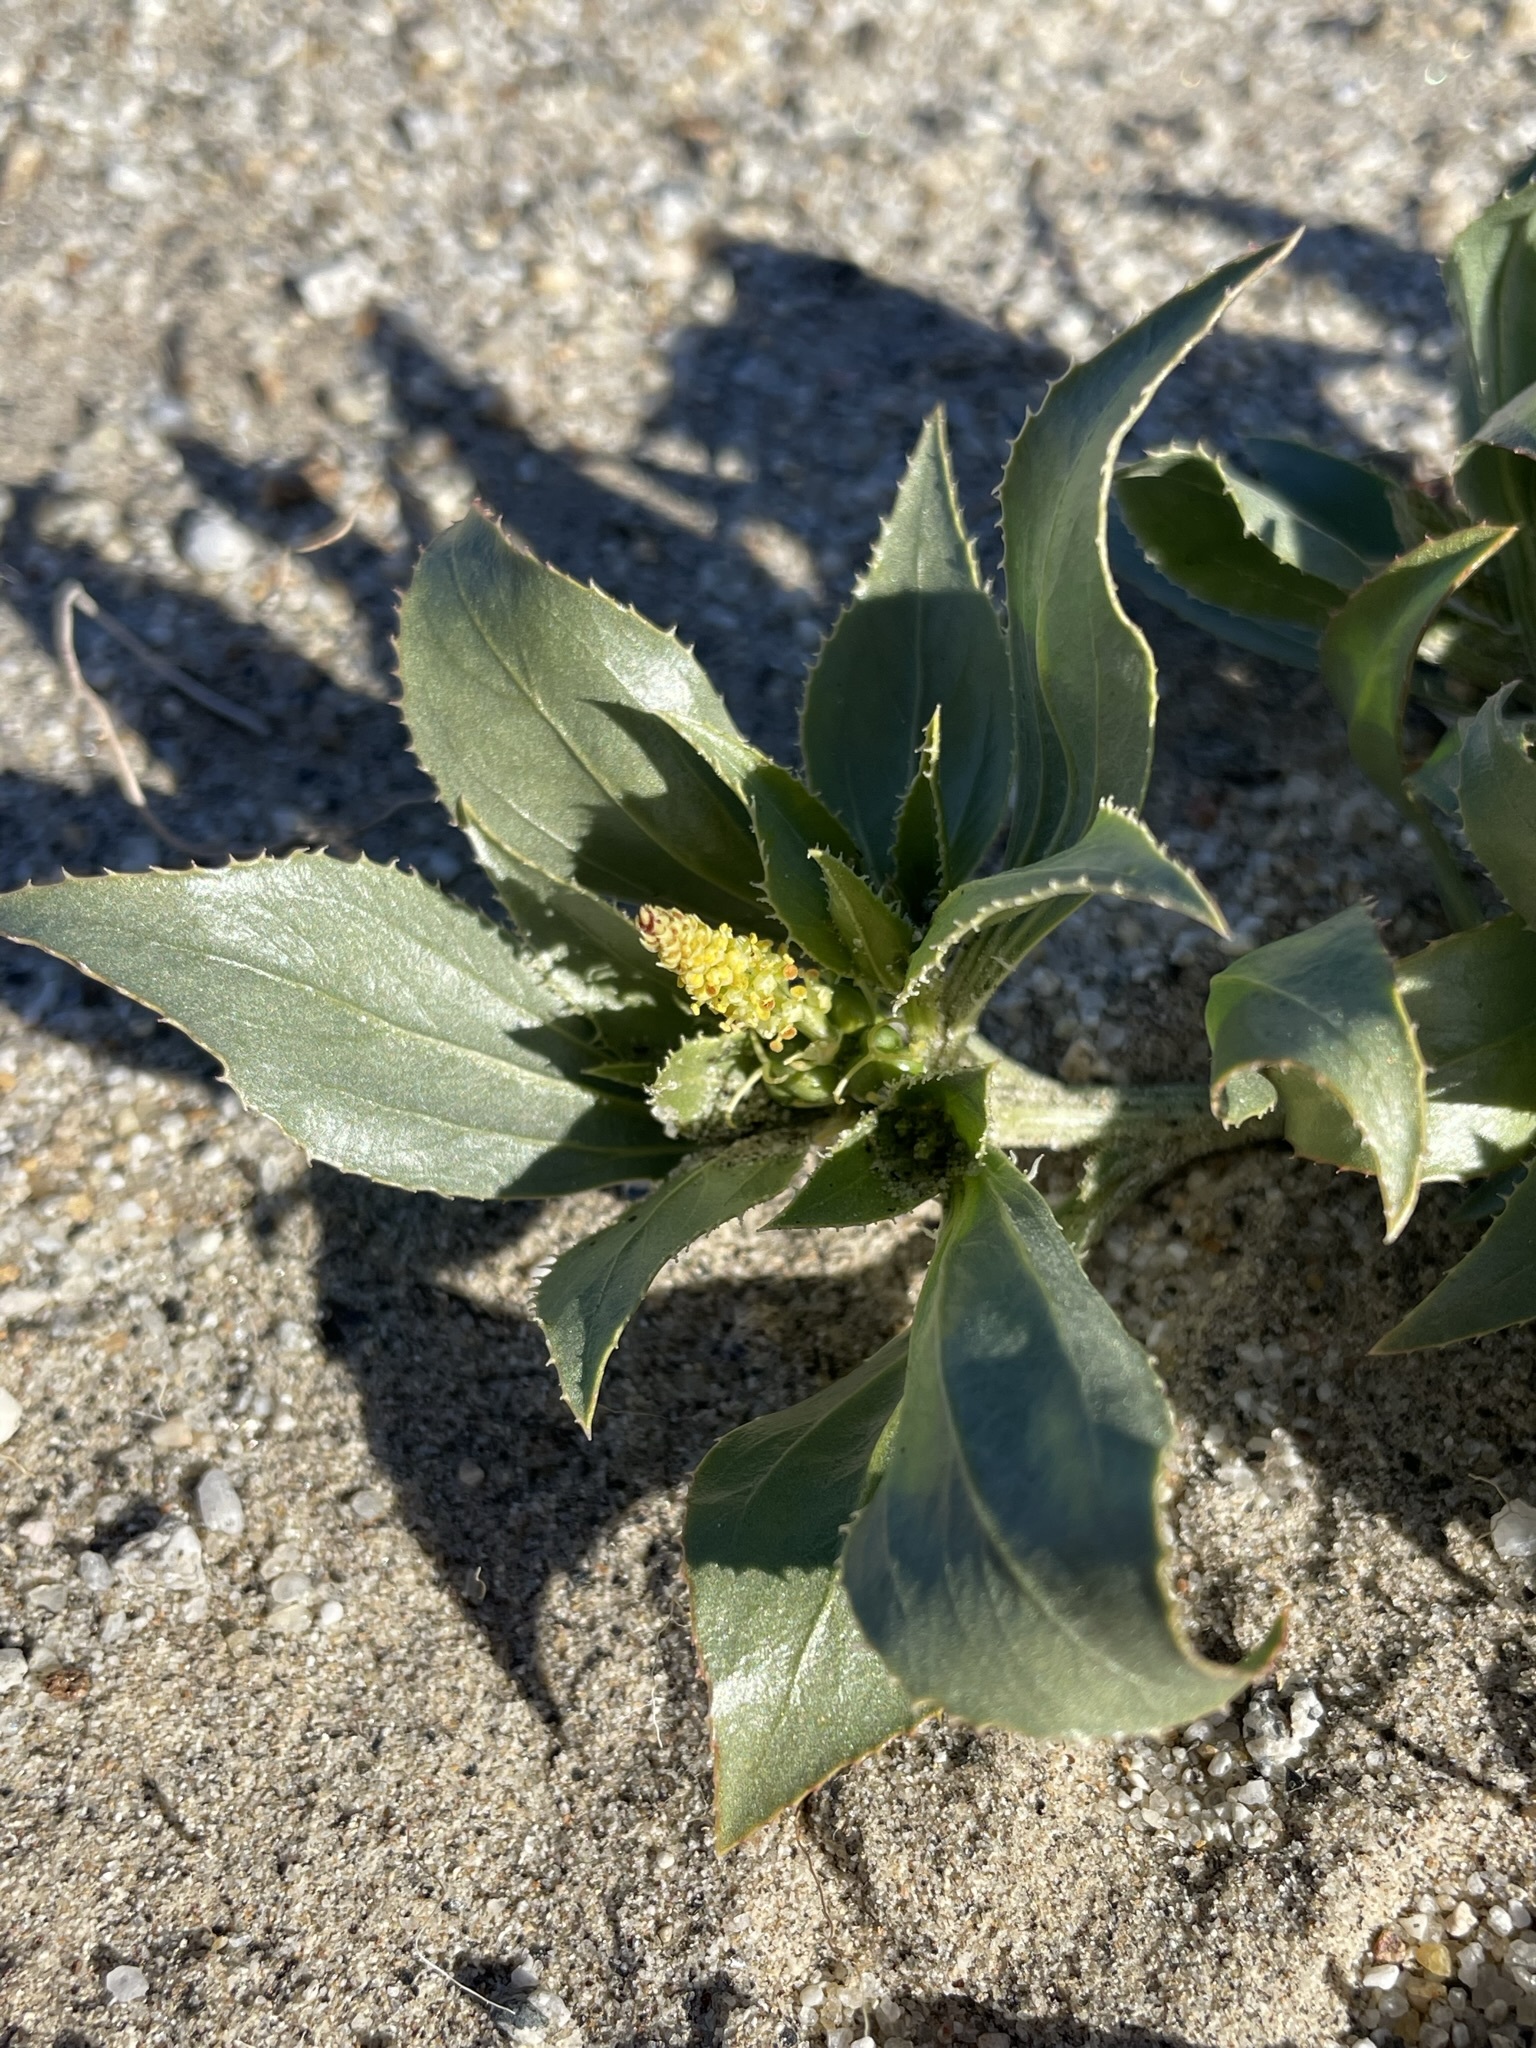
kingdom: Plantae
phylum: Tracheophyta
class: Magnoliopsida
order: Malpighiales
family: Euphorbiaceae
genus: Stillingia
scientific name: Stillingia spinulosa
